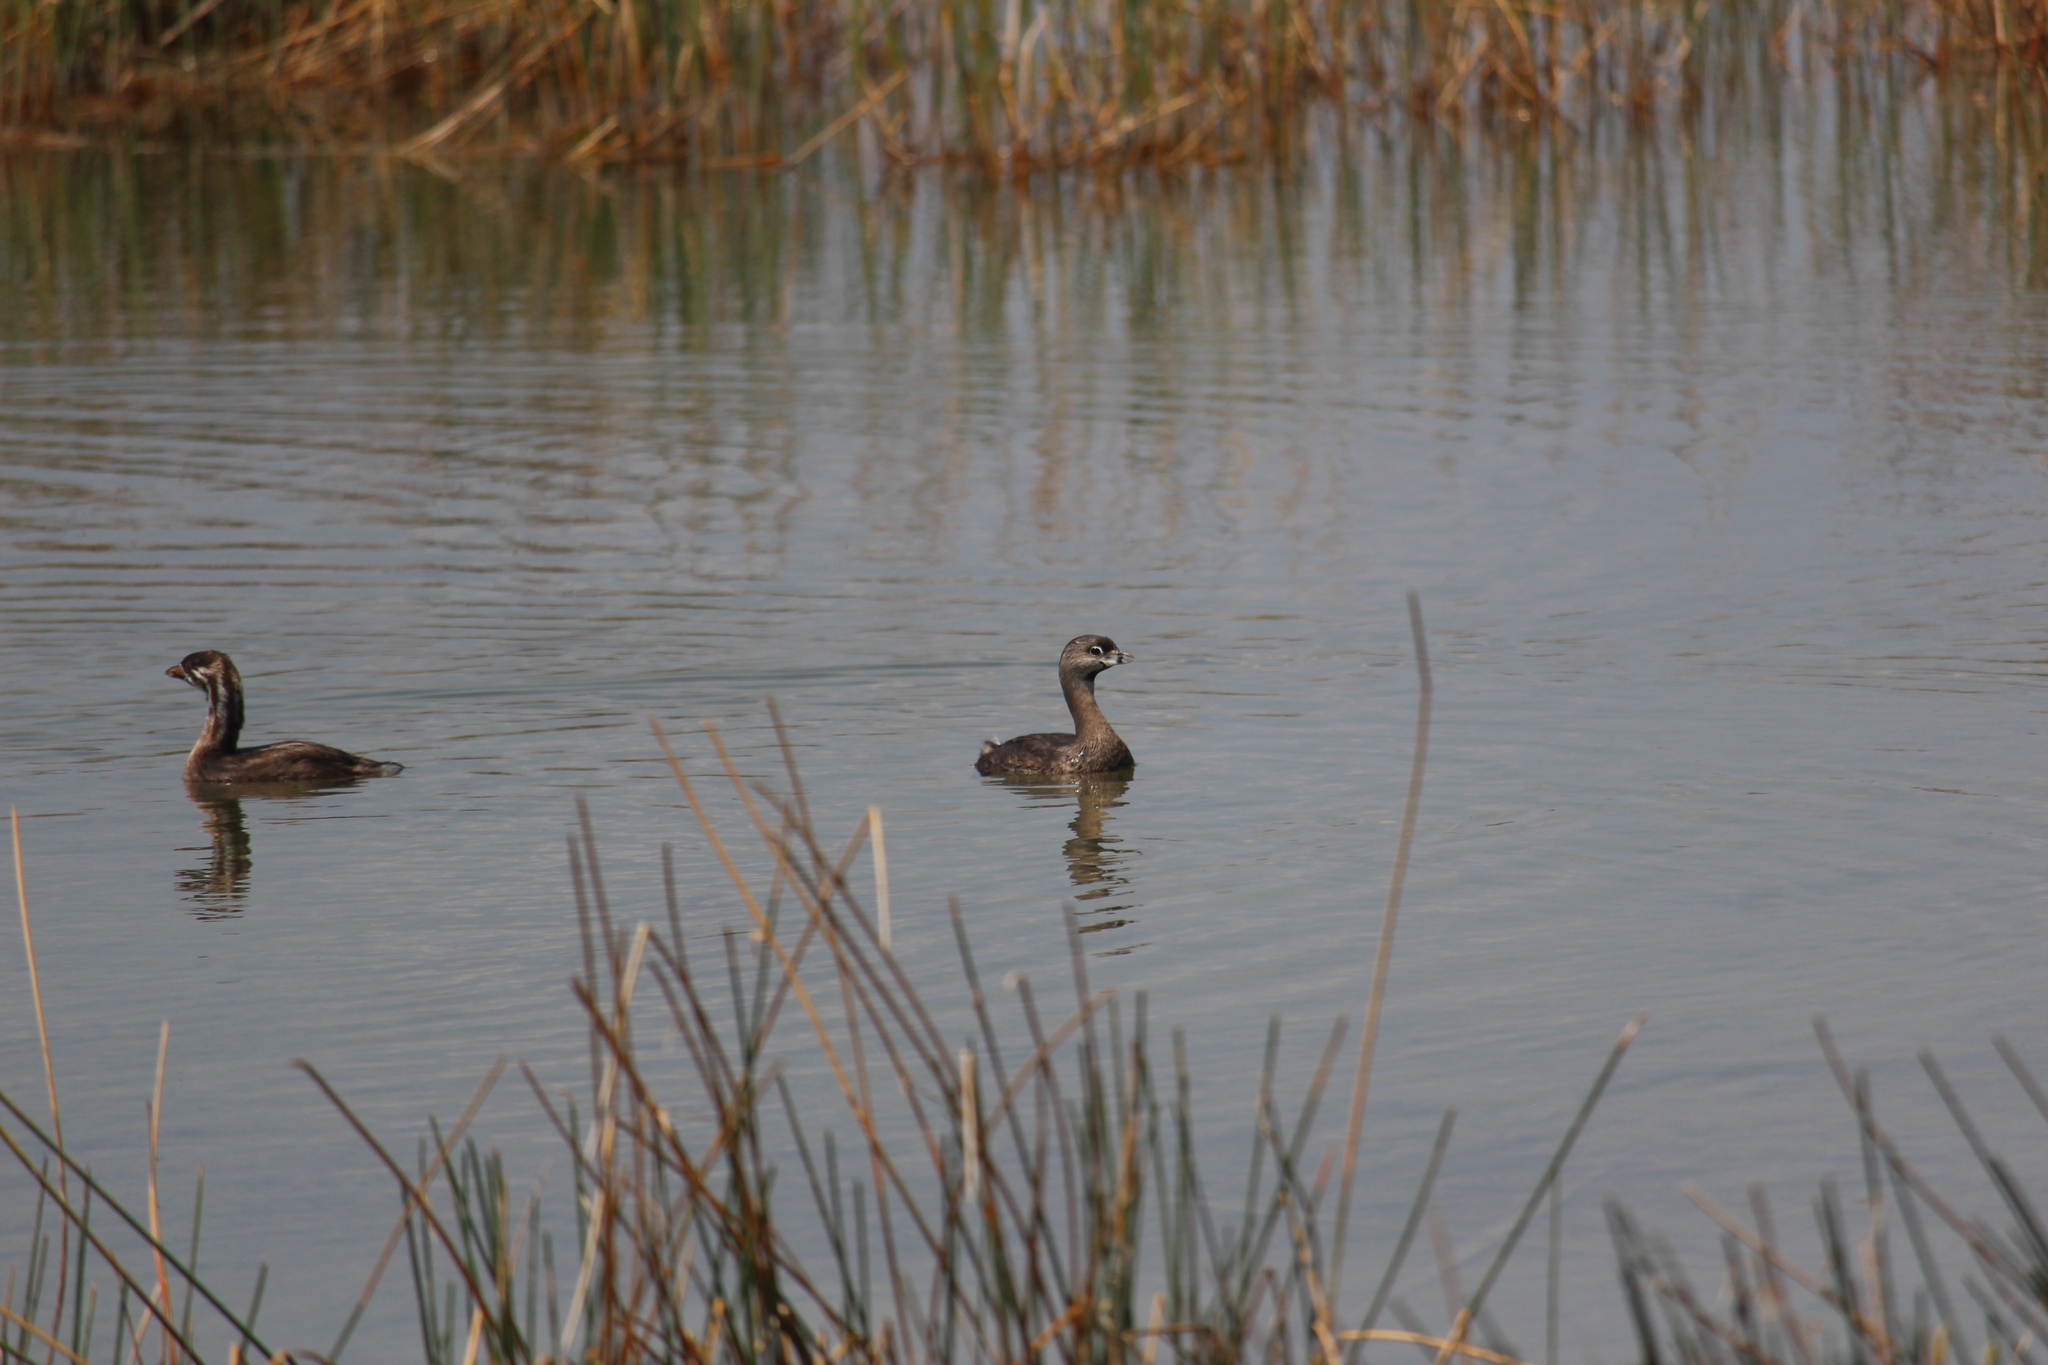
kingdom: Animalia
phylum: Chordata
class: Aves
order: Podicipediformes
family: Podicipedidae
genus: Podilymbus
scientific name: Podilymbus podiceps
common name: Pied-billed grebe
